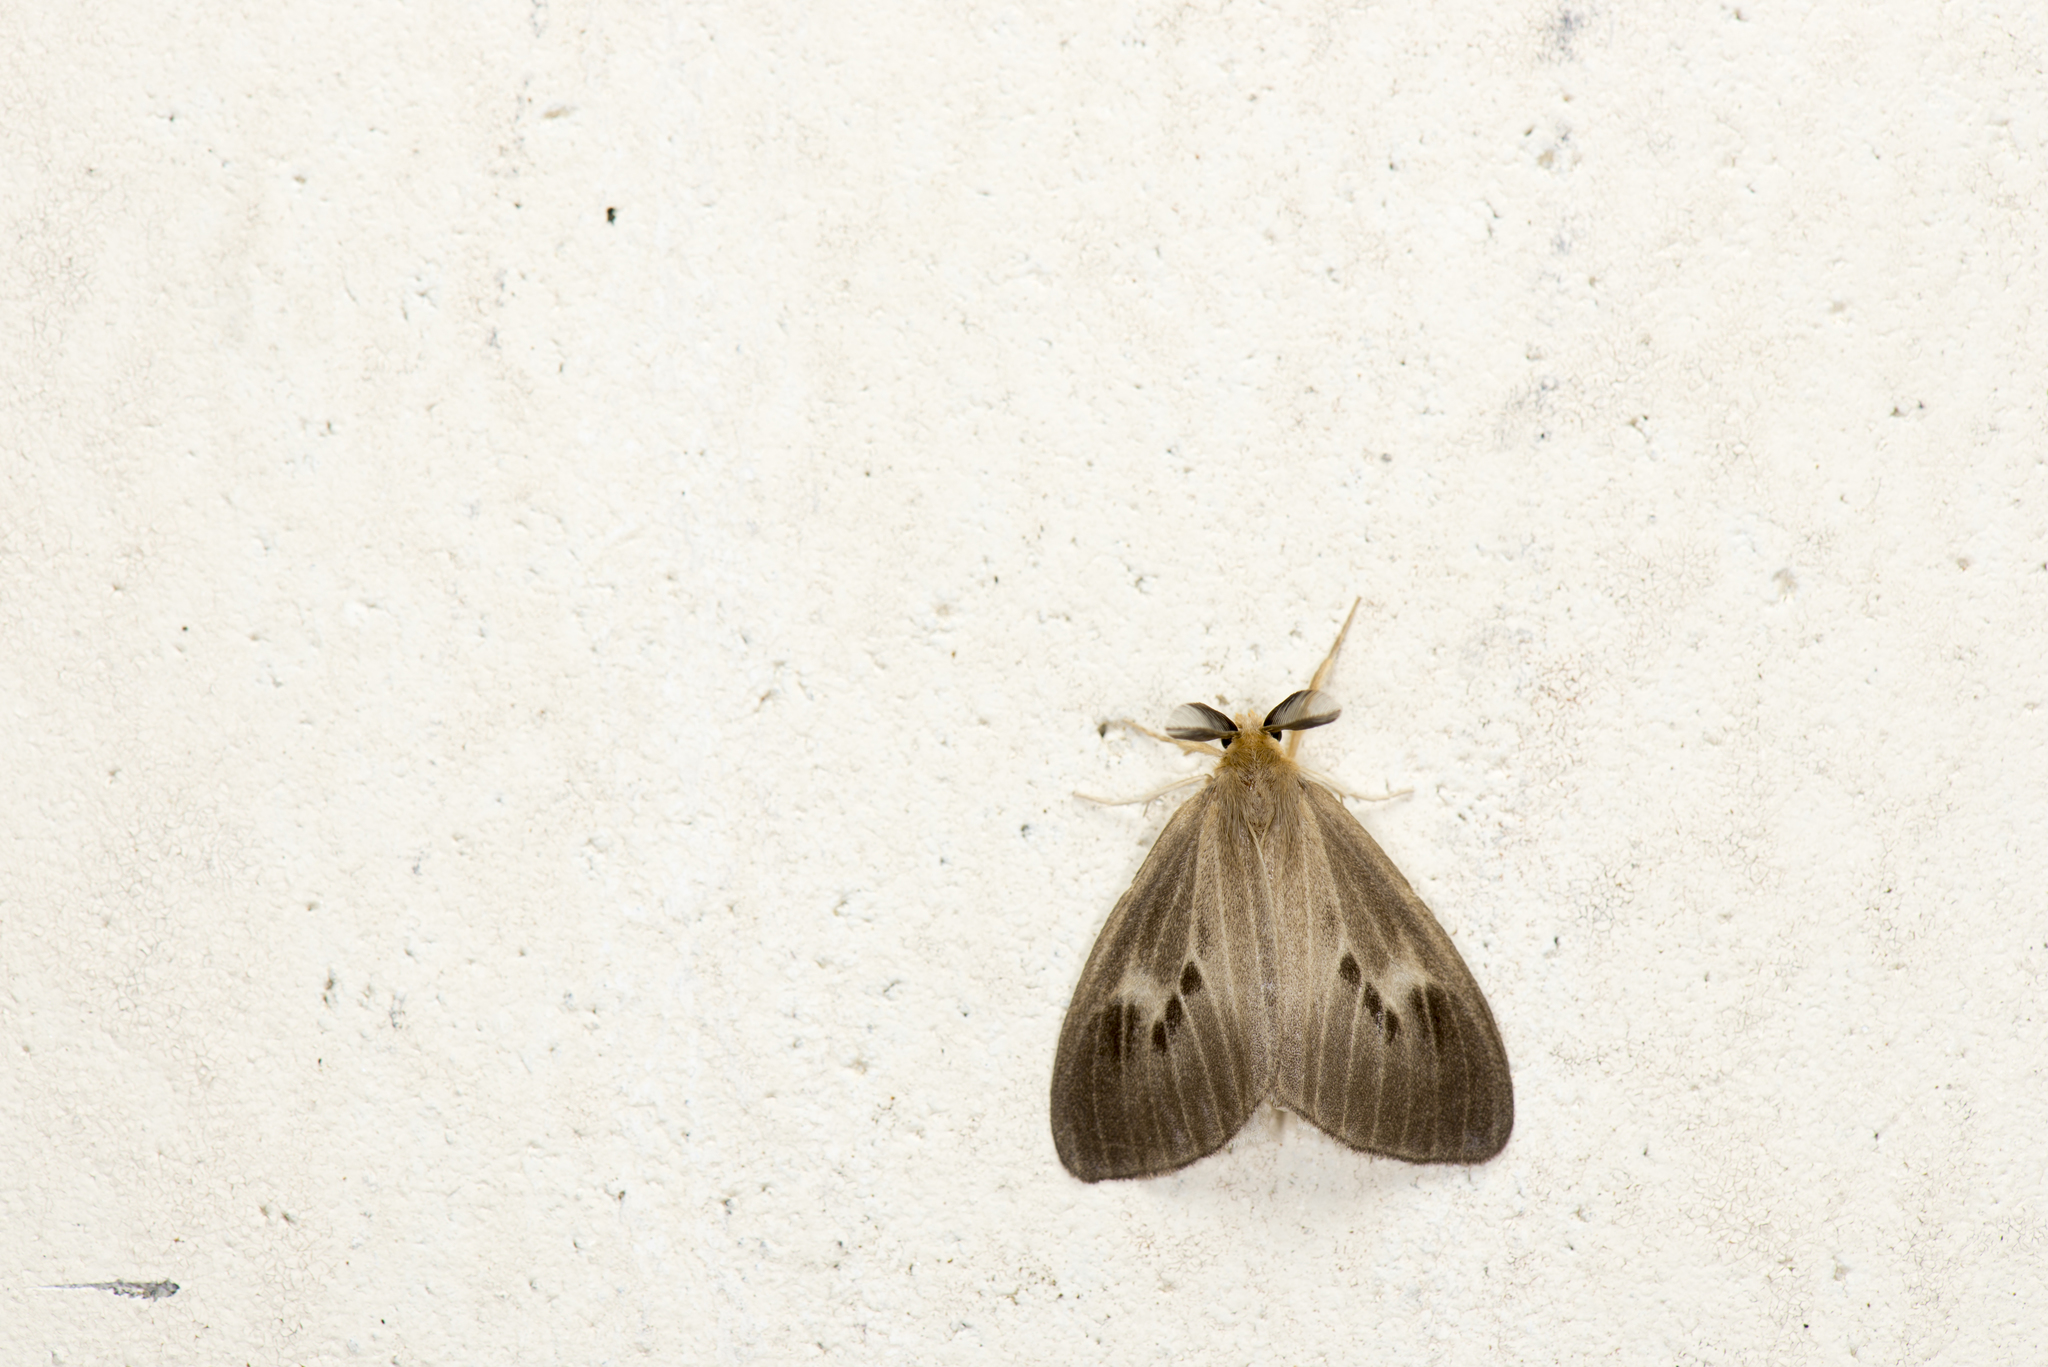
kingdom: Animalia
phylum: Arthropoda
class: Insecta
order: Lepidoptera
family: Erebidae
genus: Laelia
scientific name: Laelia ochripalpis
